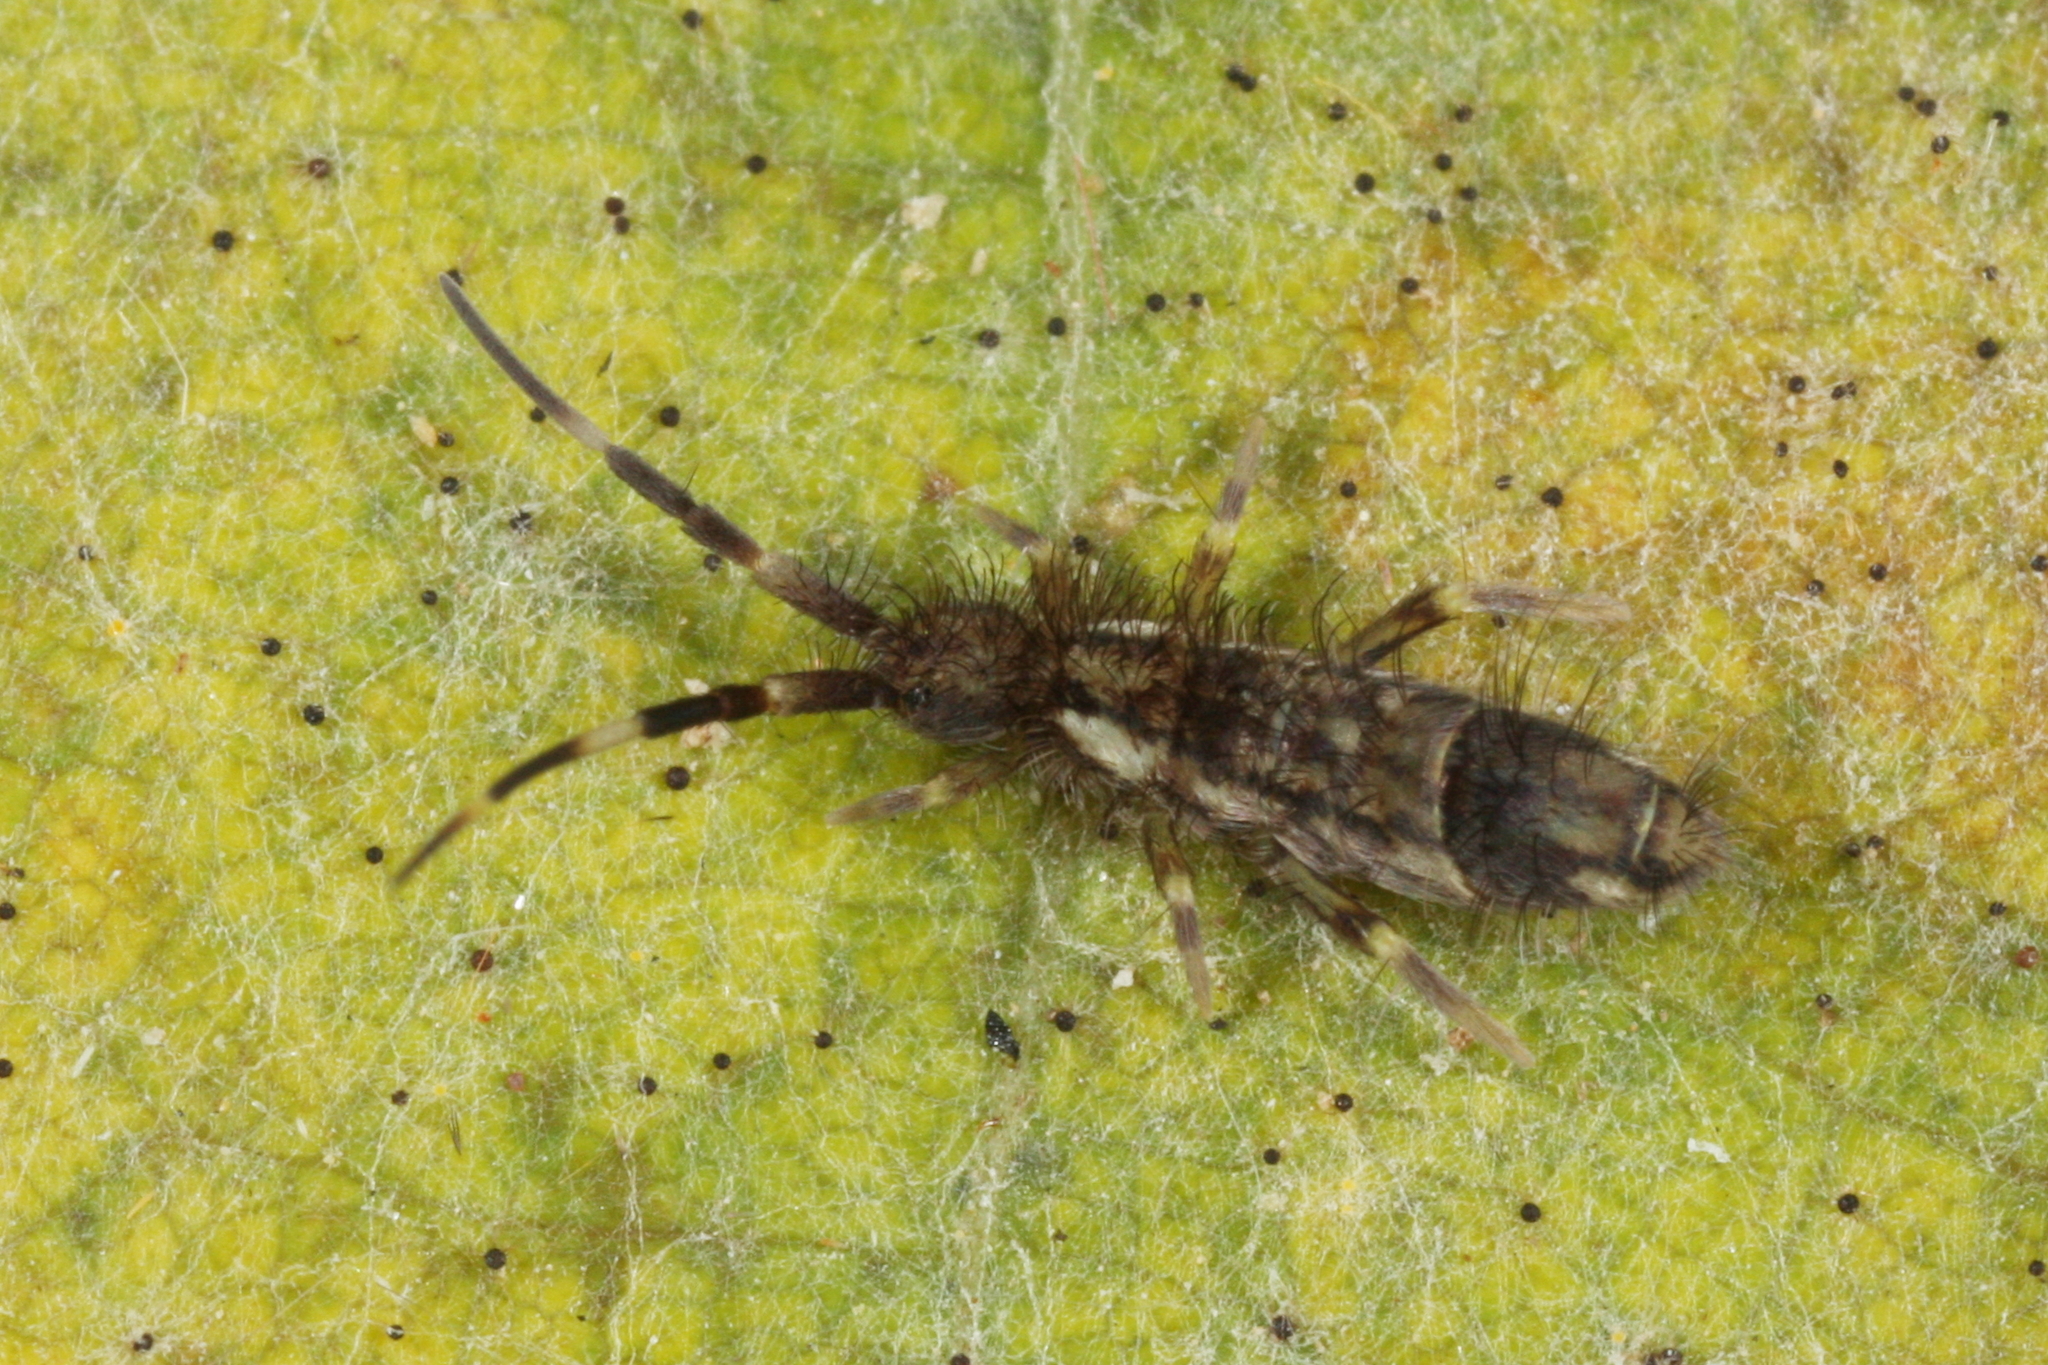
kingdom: Animalia
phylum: Arthropoda
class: Collembola
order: Entomobryomorpha
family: Entomobryidae
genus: Entomobrya
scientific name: Entomobrya nivalis
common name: Cosmopolitan springtail
